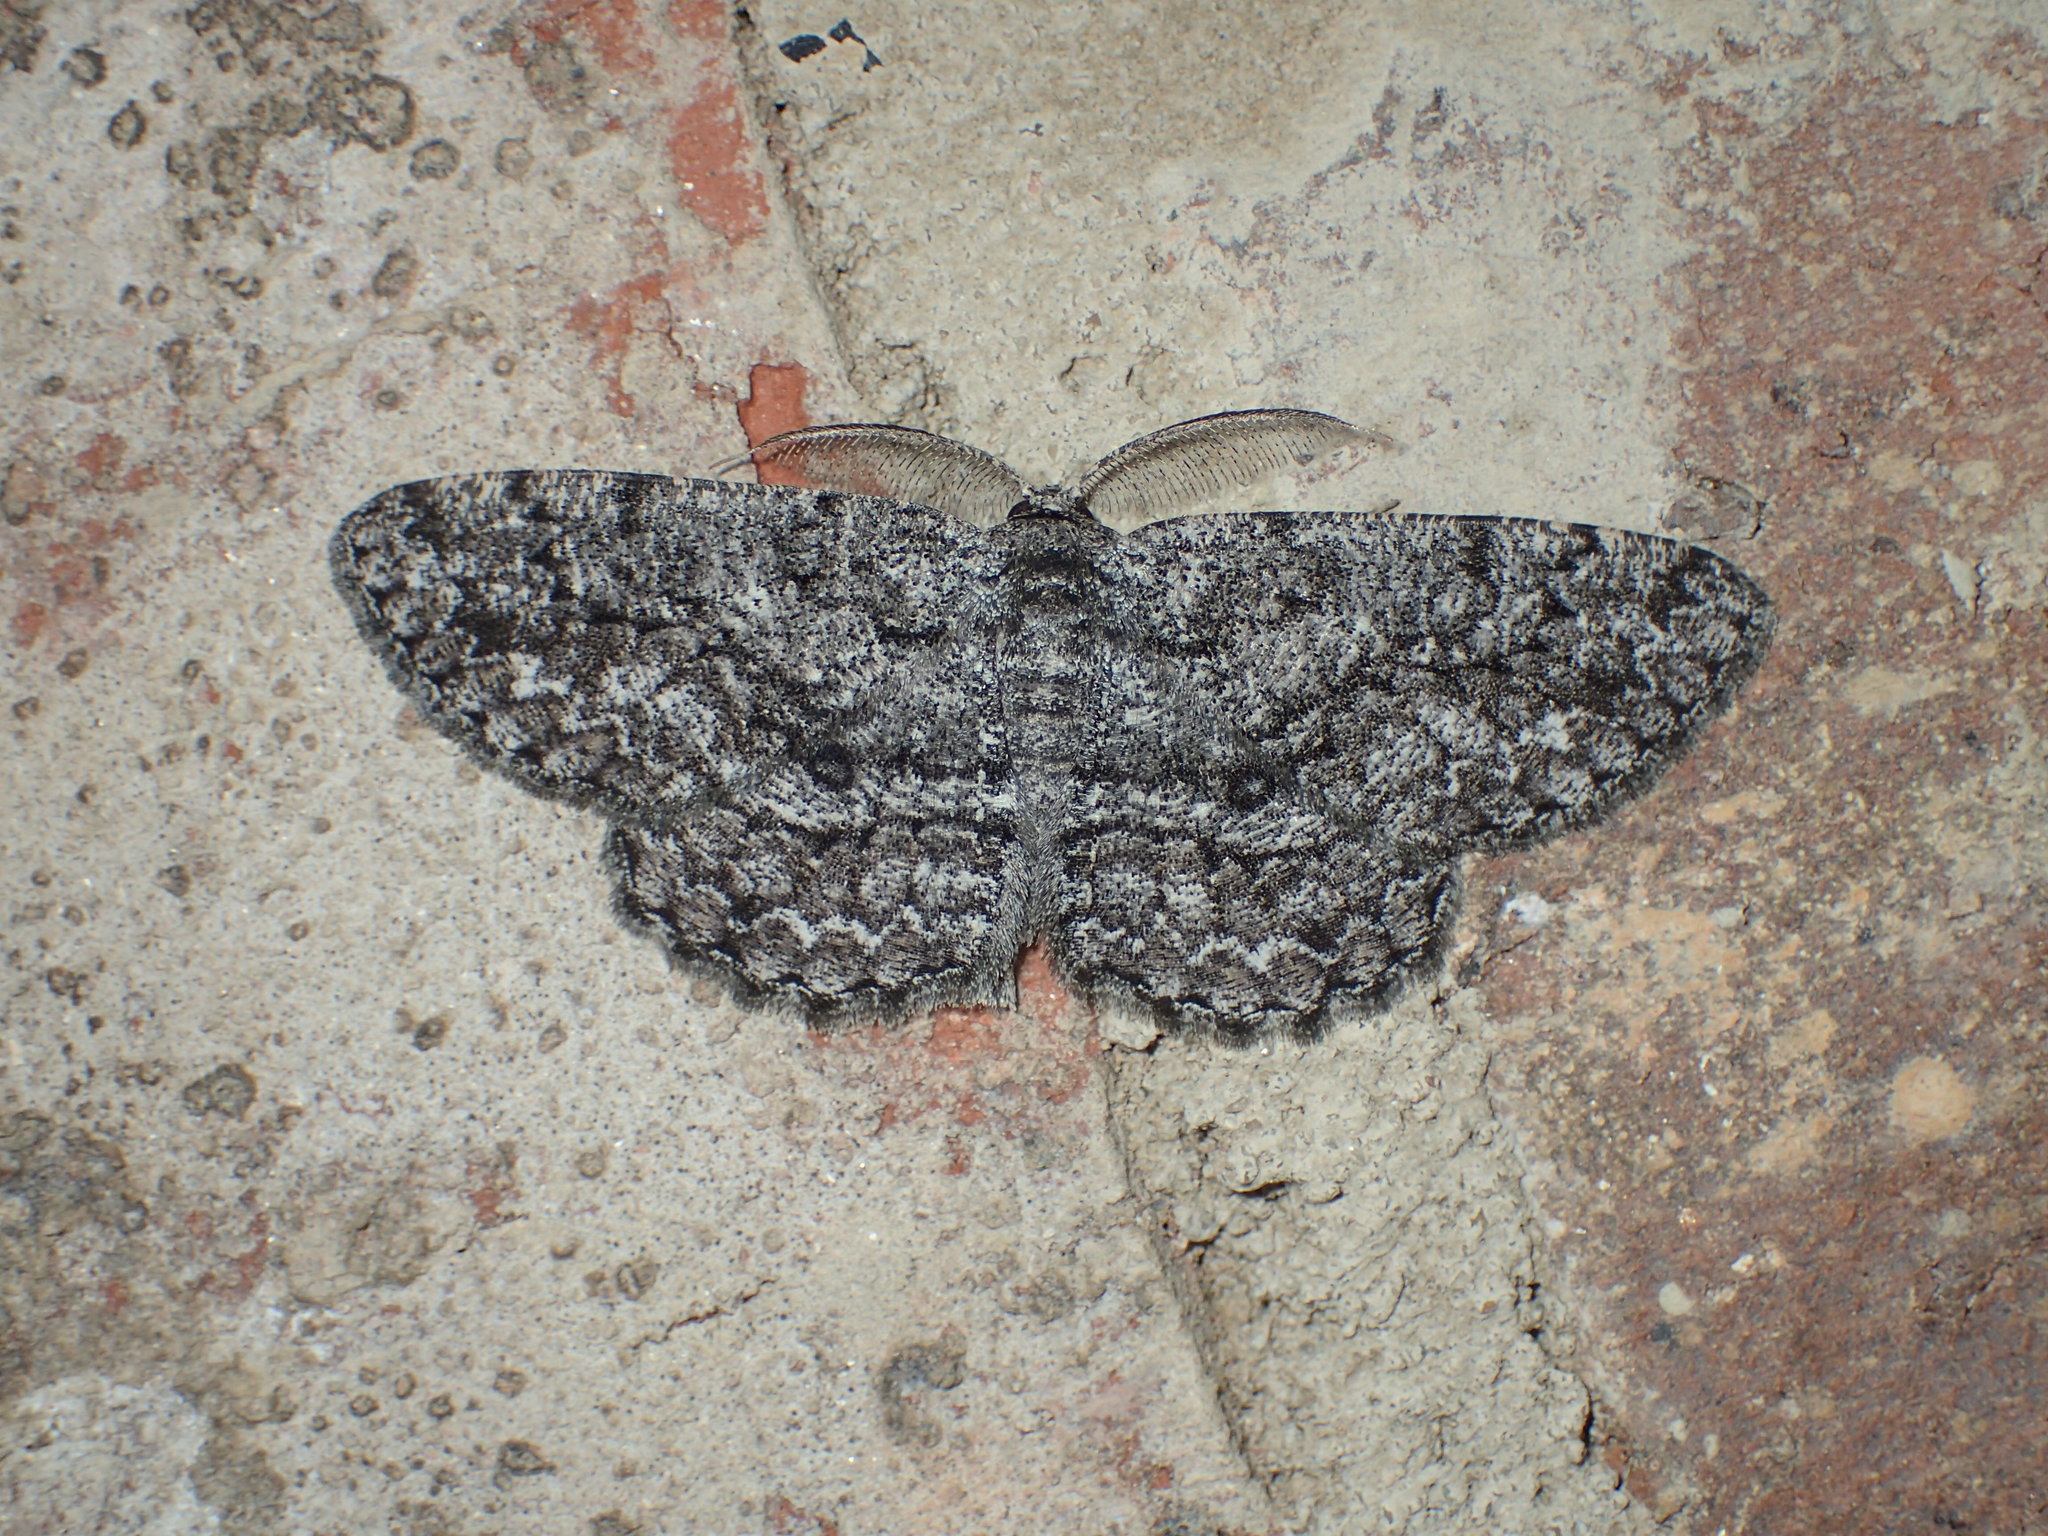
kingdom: Animalia
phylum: Arthropoda
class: Insecta
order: Lepidoptera
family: Geometridae
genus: Hypomecis
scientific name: Hypomecis umbrosaria
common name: Umber moth
